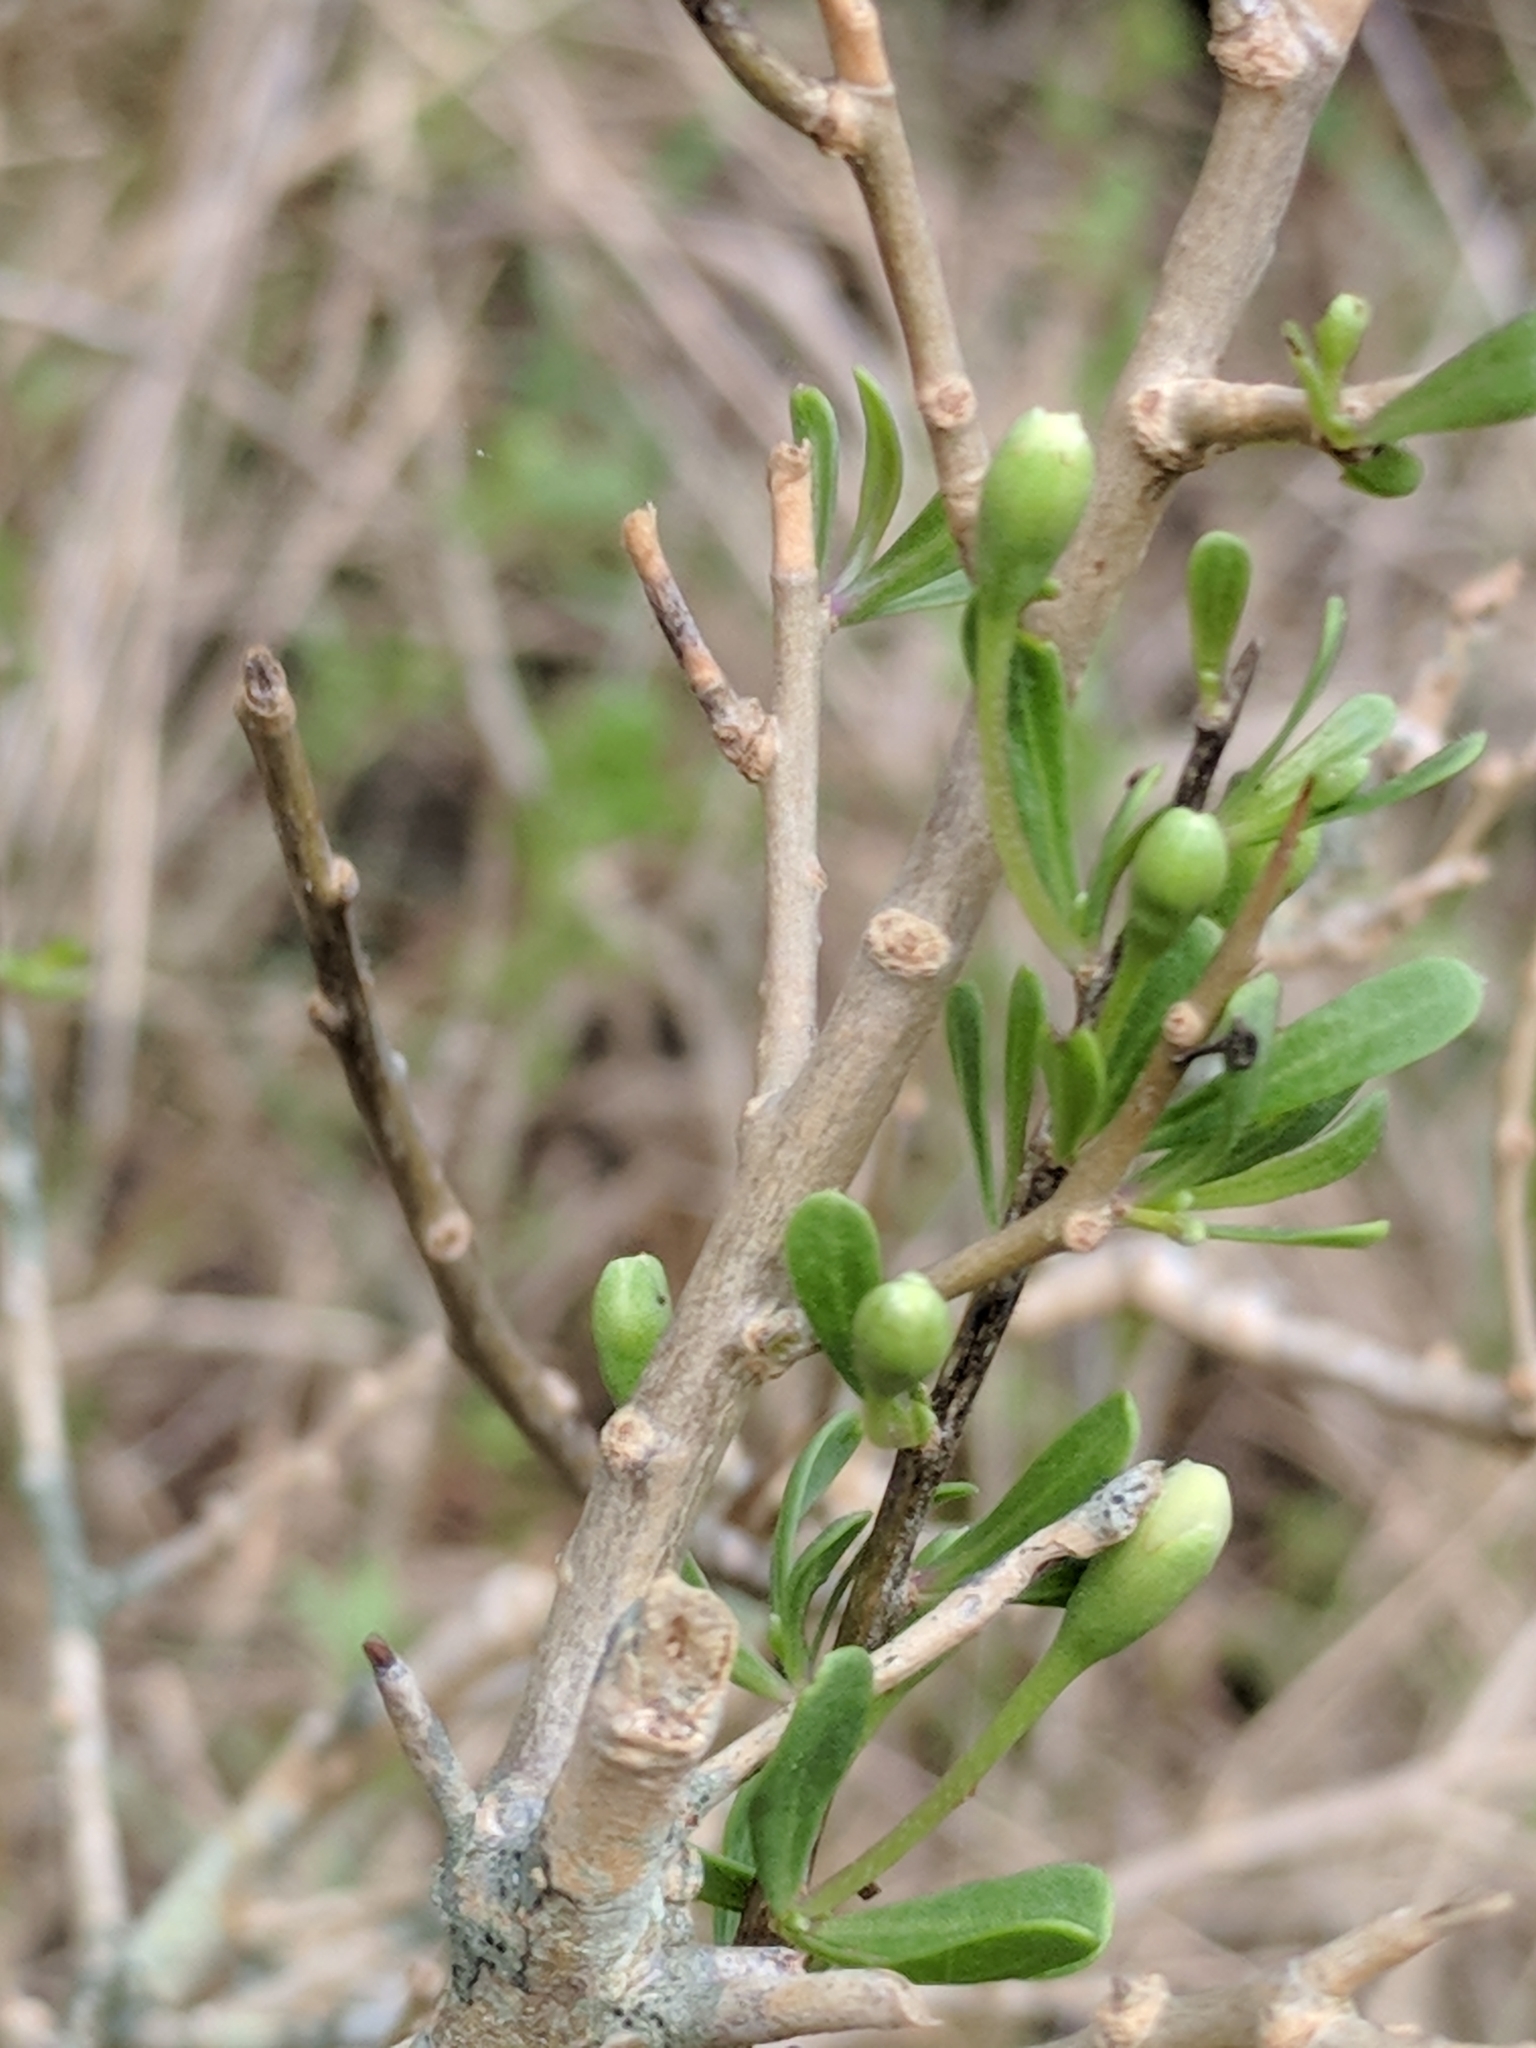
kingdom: Plantae
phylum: Tracheophyta
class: Magnoliopsida
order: Solanales
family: Solanaceae
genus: Lycium
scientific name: Lycium carolinianum
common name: Christmasberry
